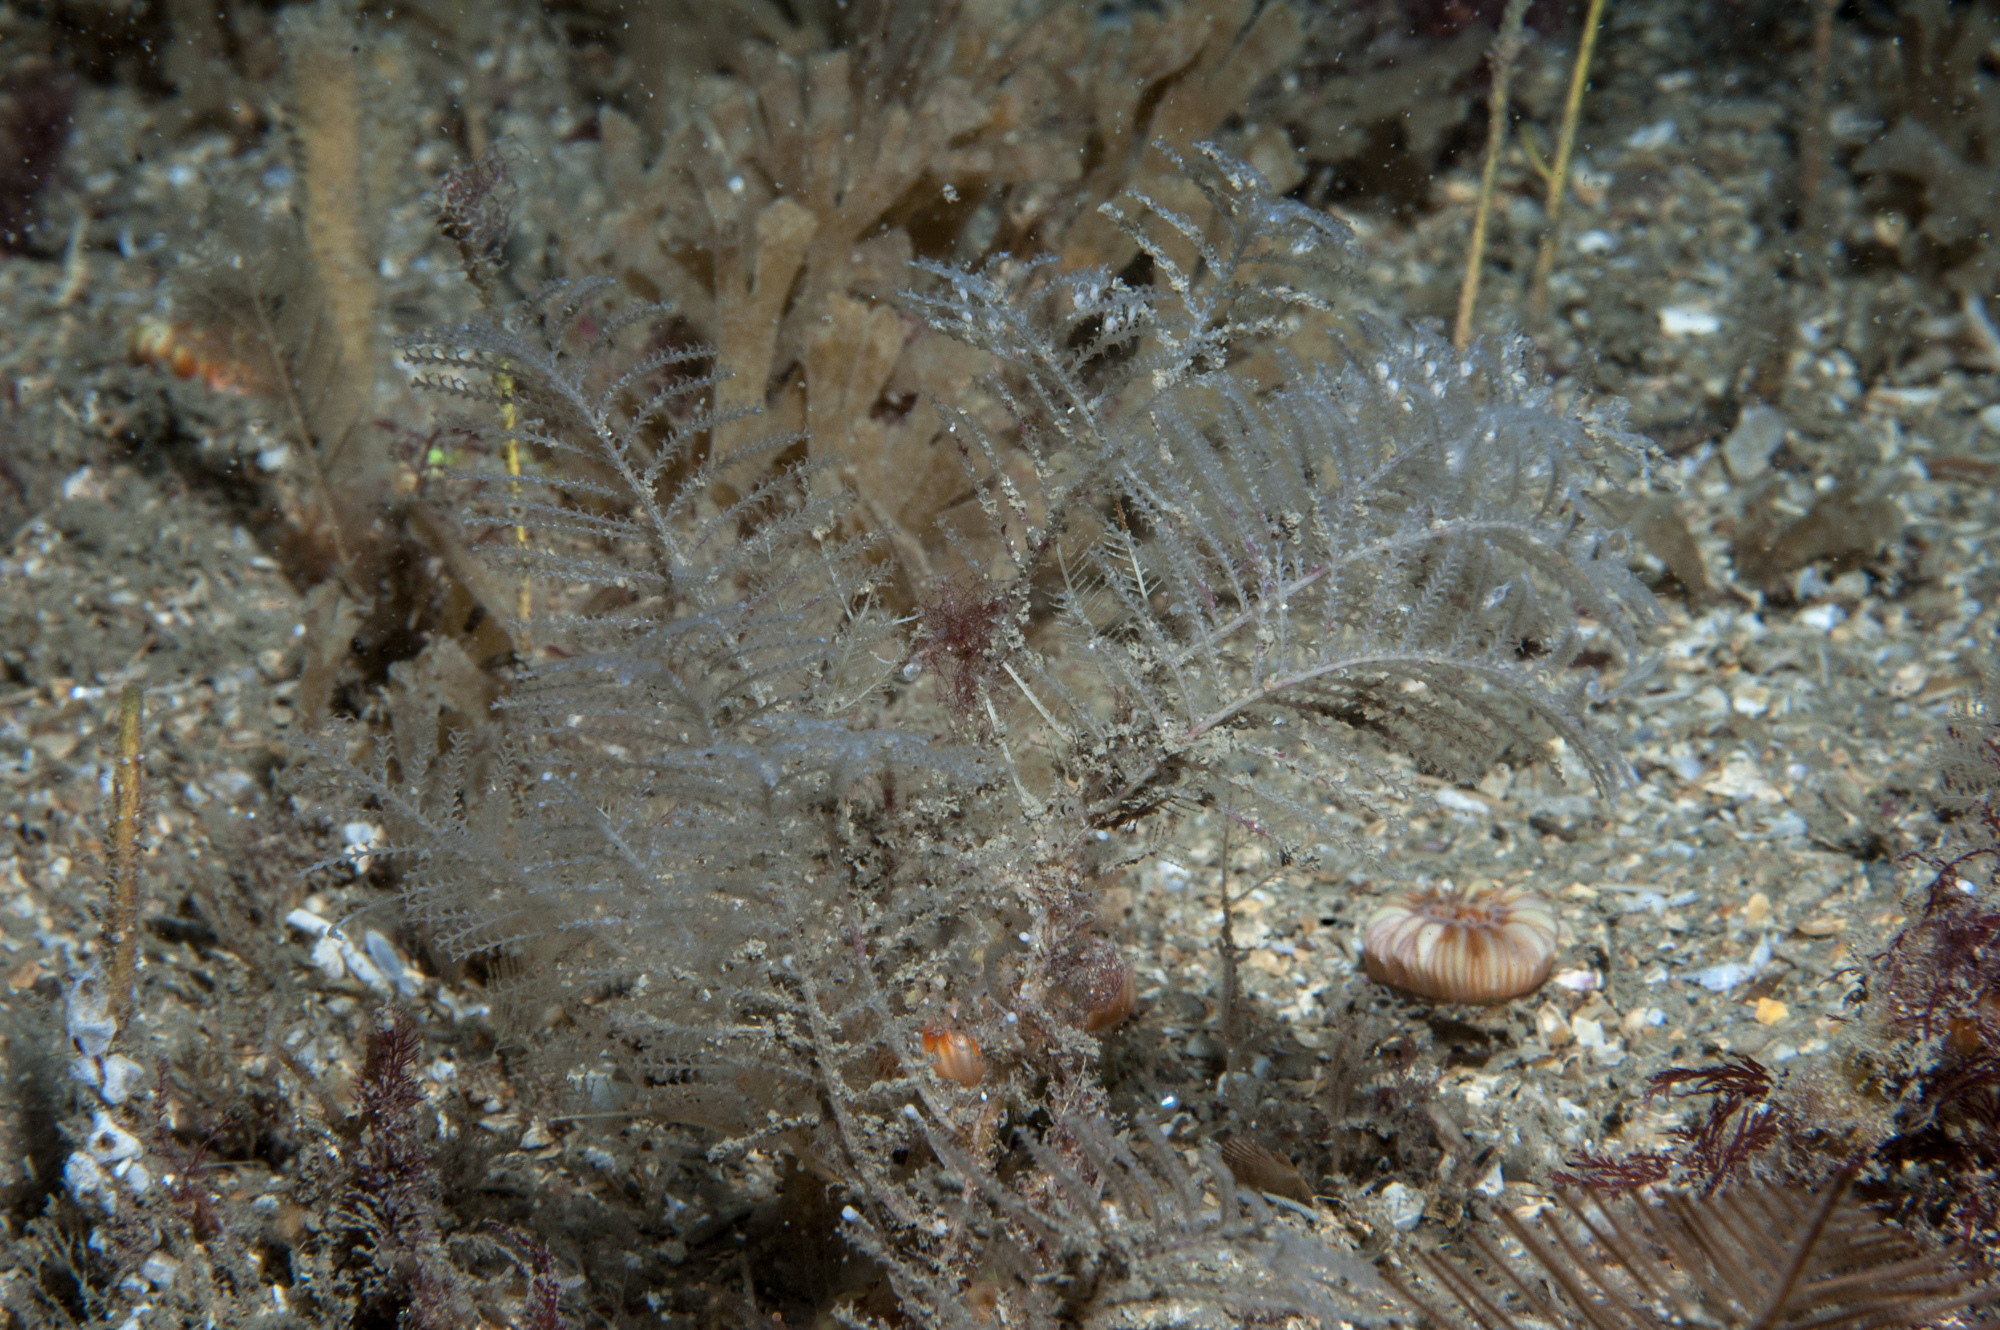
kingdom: Animalia
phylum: Cnidaria
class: Hydrozoa
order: Leptothecata
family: Sertulariidae
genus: Diphasia
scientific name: Diphasia fallax
